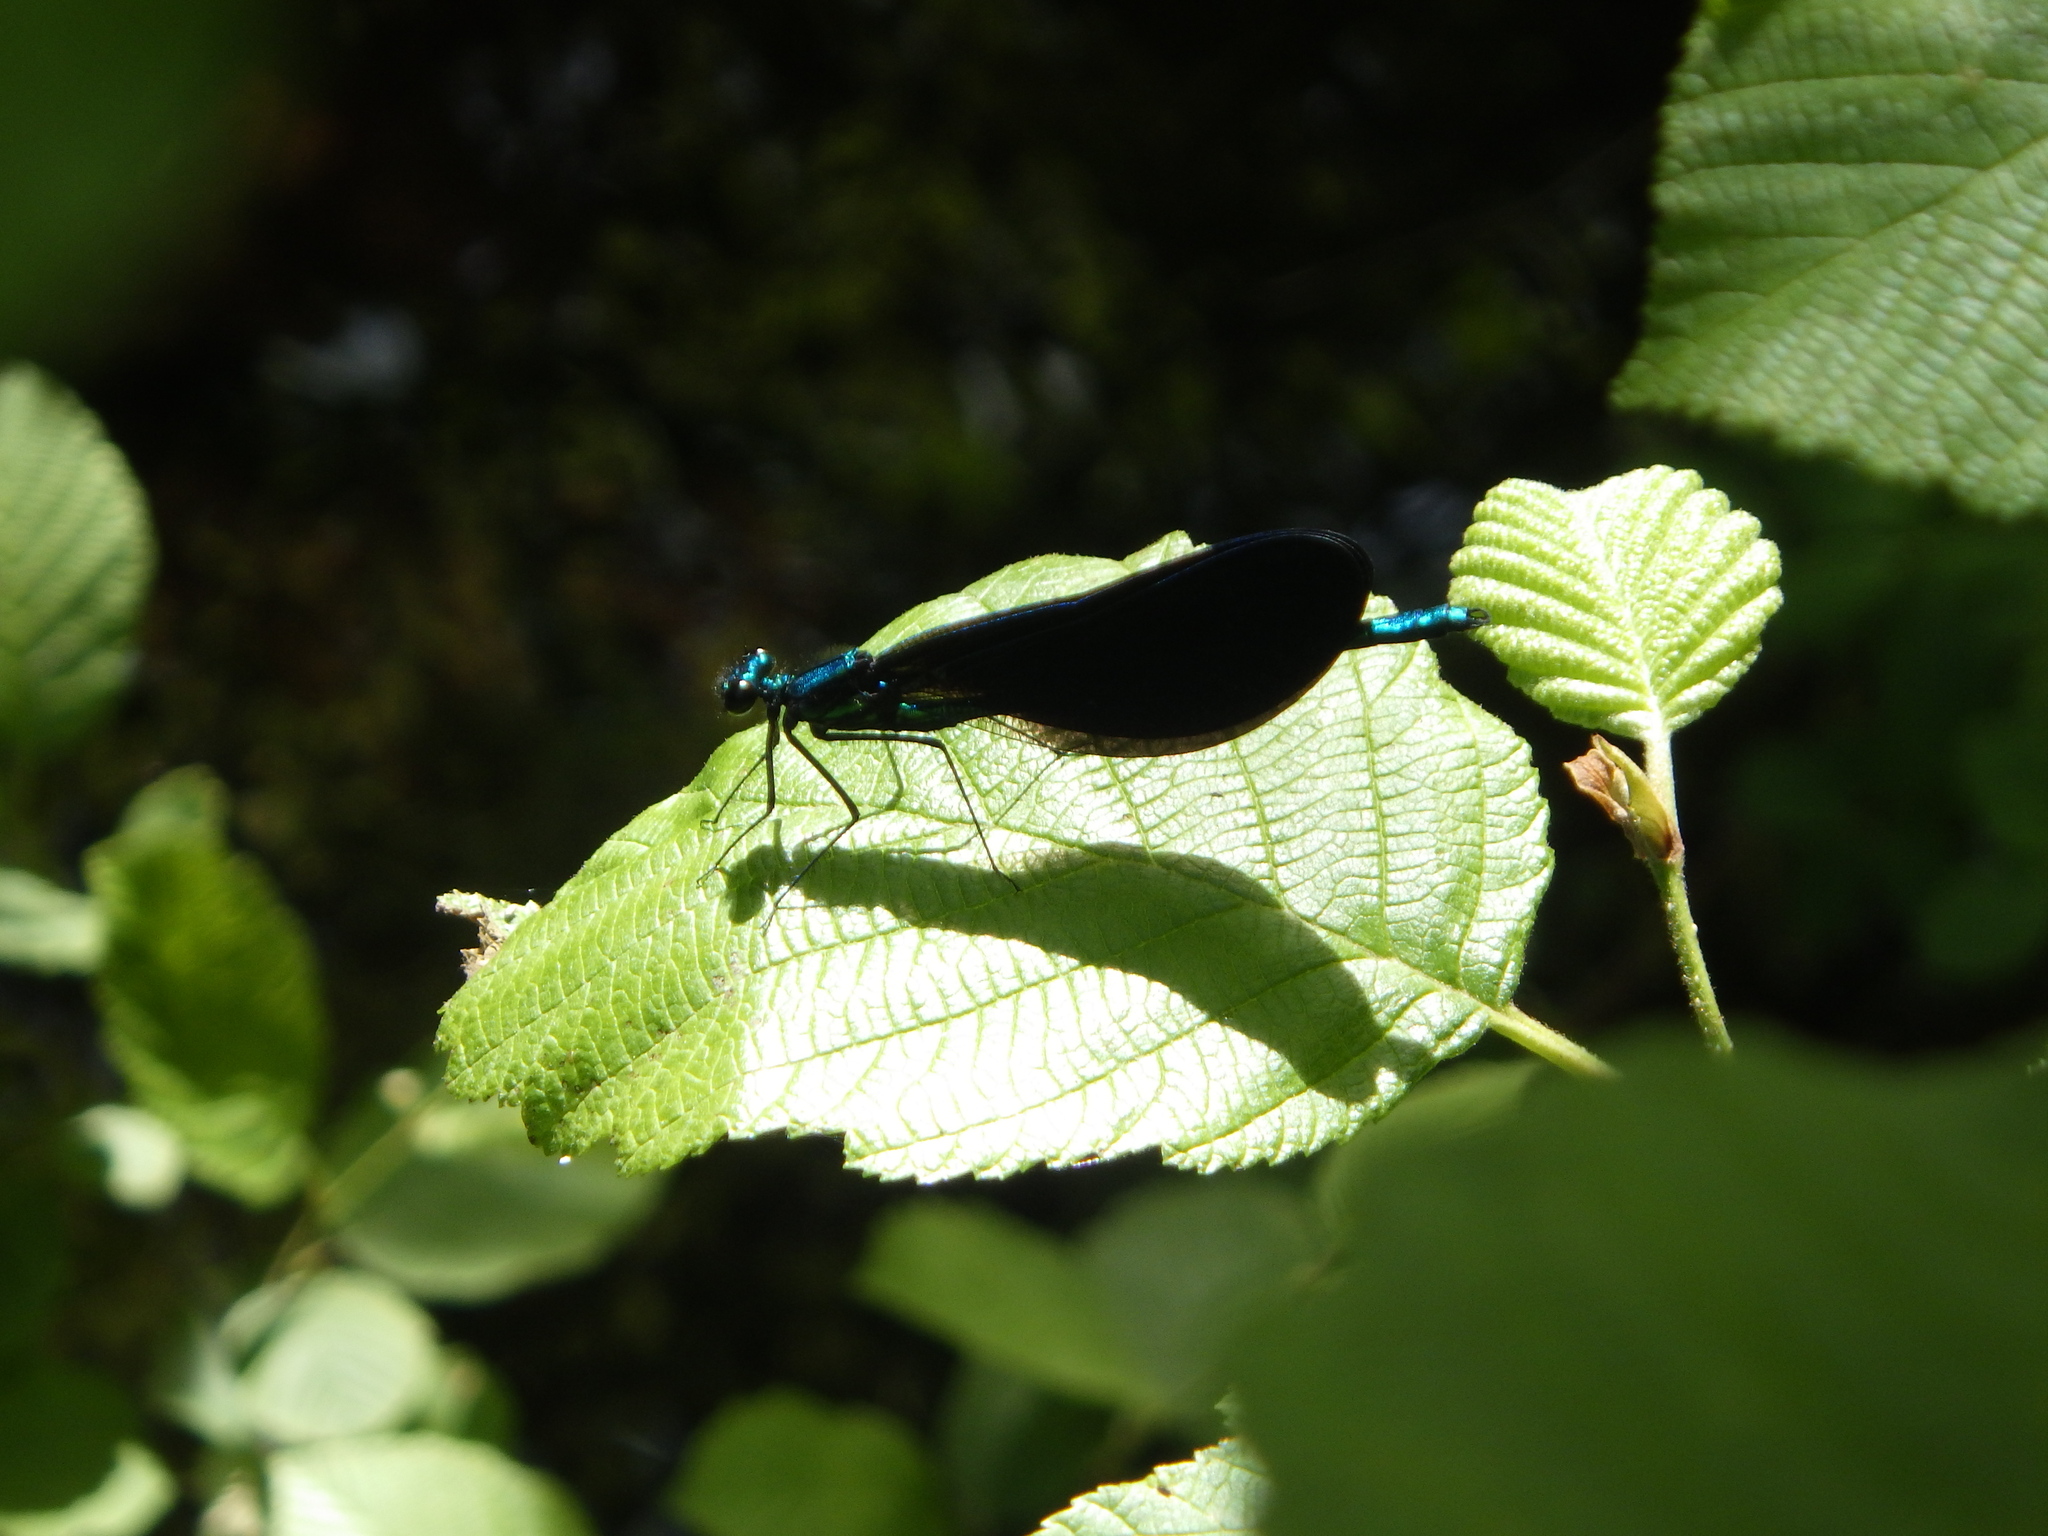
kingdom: Animalia
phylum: Arthropoda
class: Insecta
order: Odonata
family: Calopterygidae
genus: Calopteryx
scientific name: Calopteryx maculata
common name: Ebony jewelwing
